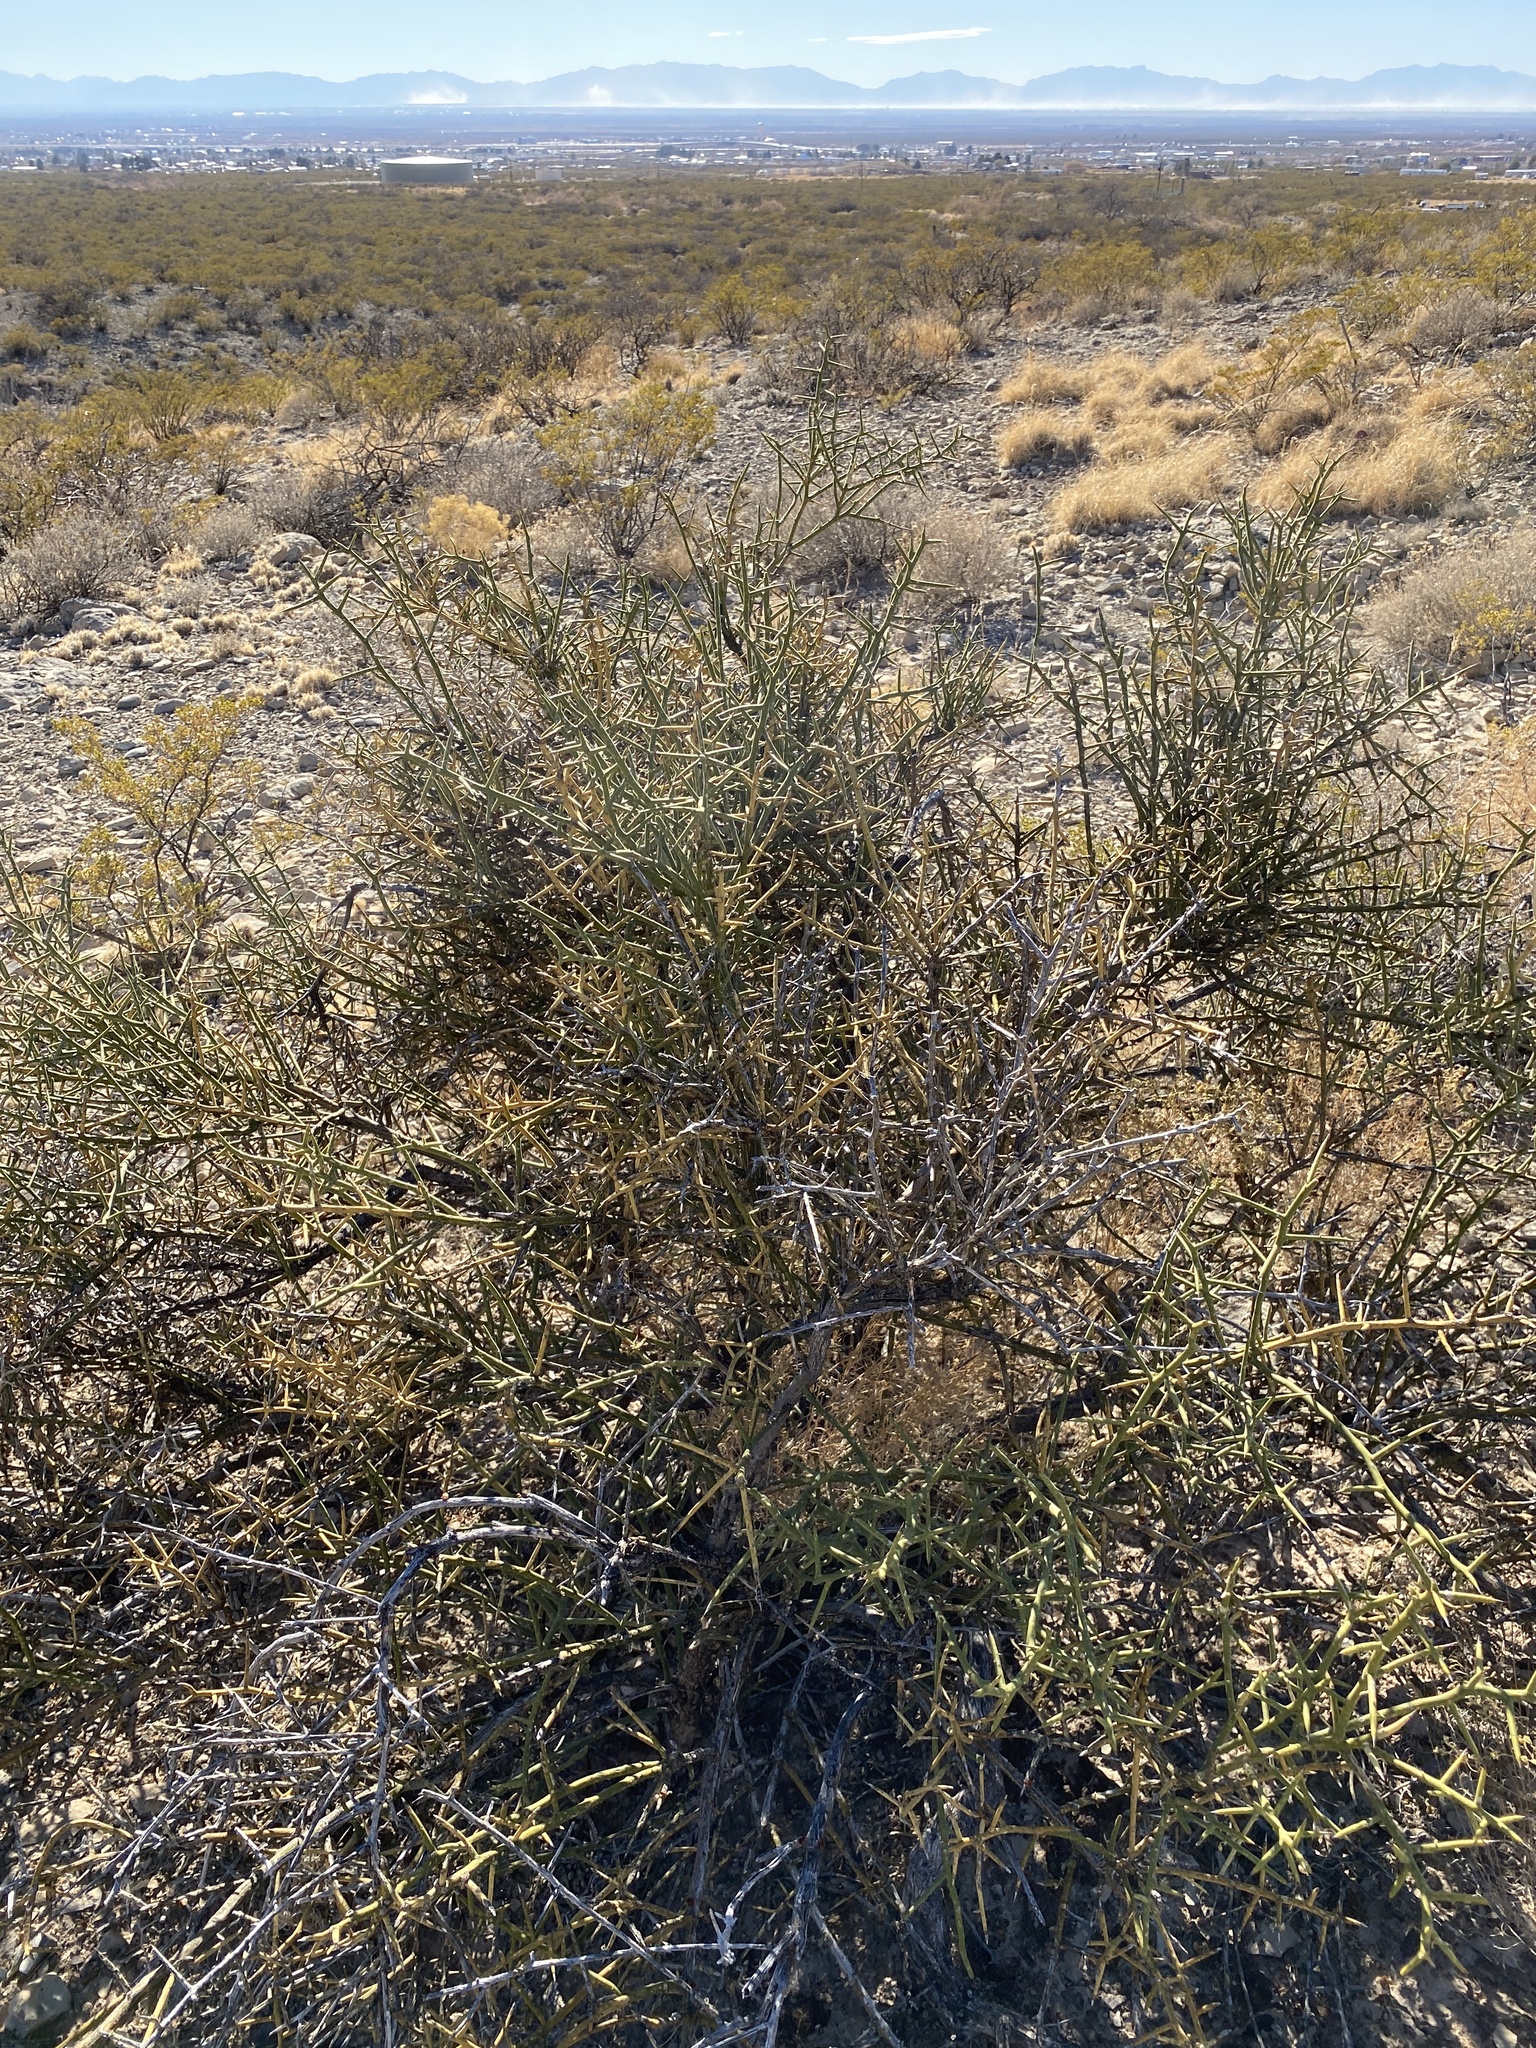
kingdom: Plantae
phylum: Tracheophyta
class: Magnoliopsida
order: Brassicales
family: Koeberliniaceae
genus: Koeberlinia
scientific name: Koeberlinia spinosa
